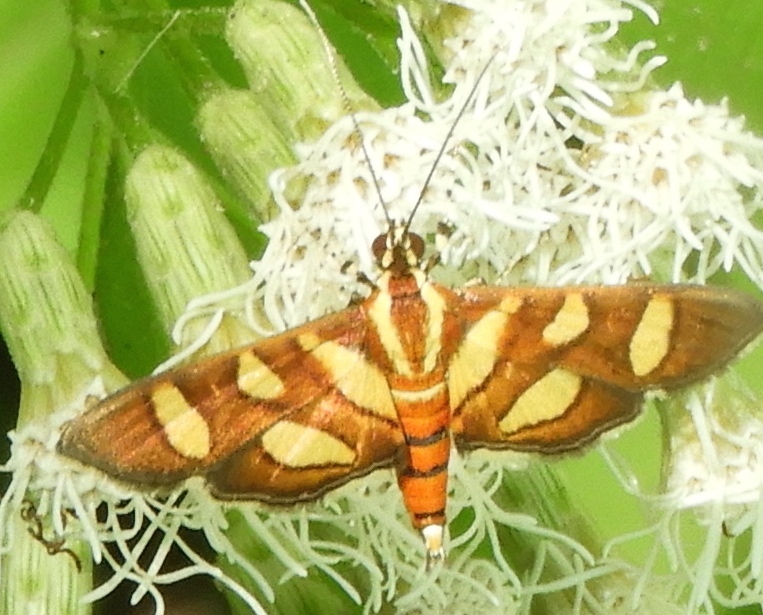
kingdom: Animalia
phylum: Arthropoda
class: Insecta
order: Lepidoptera
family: Crambidae
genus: Syngamia
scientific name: Syngamia florella
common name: Orange-spotted flower moth
